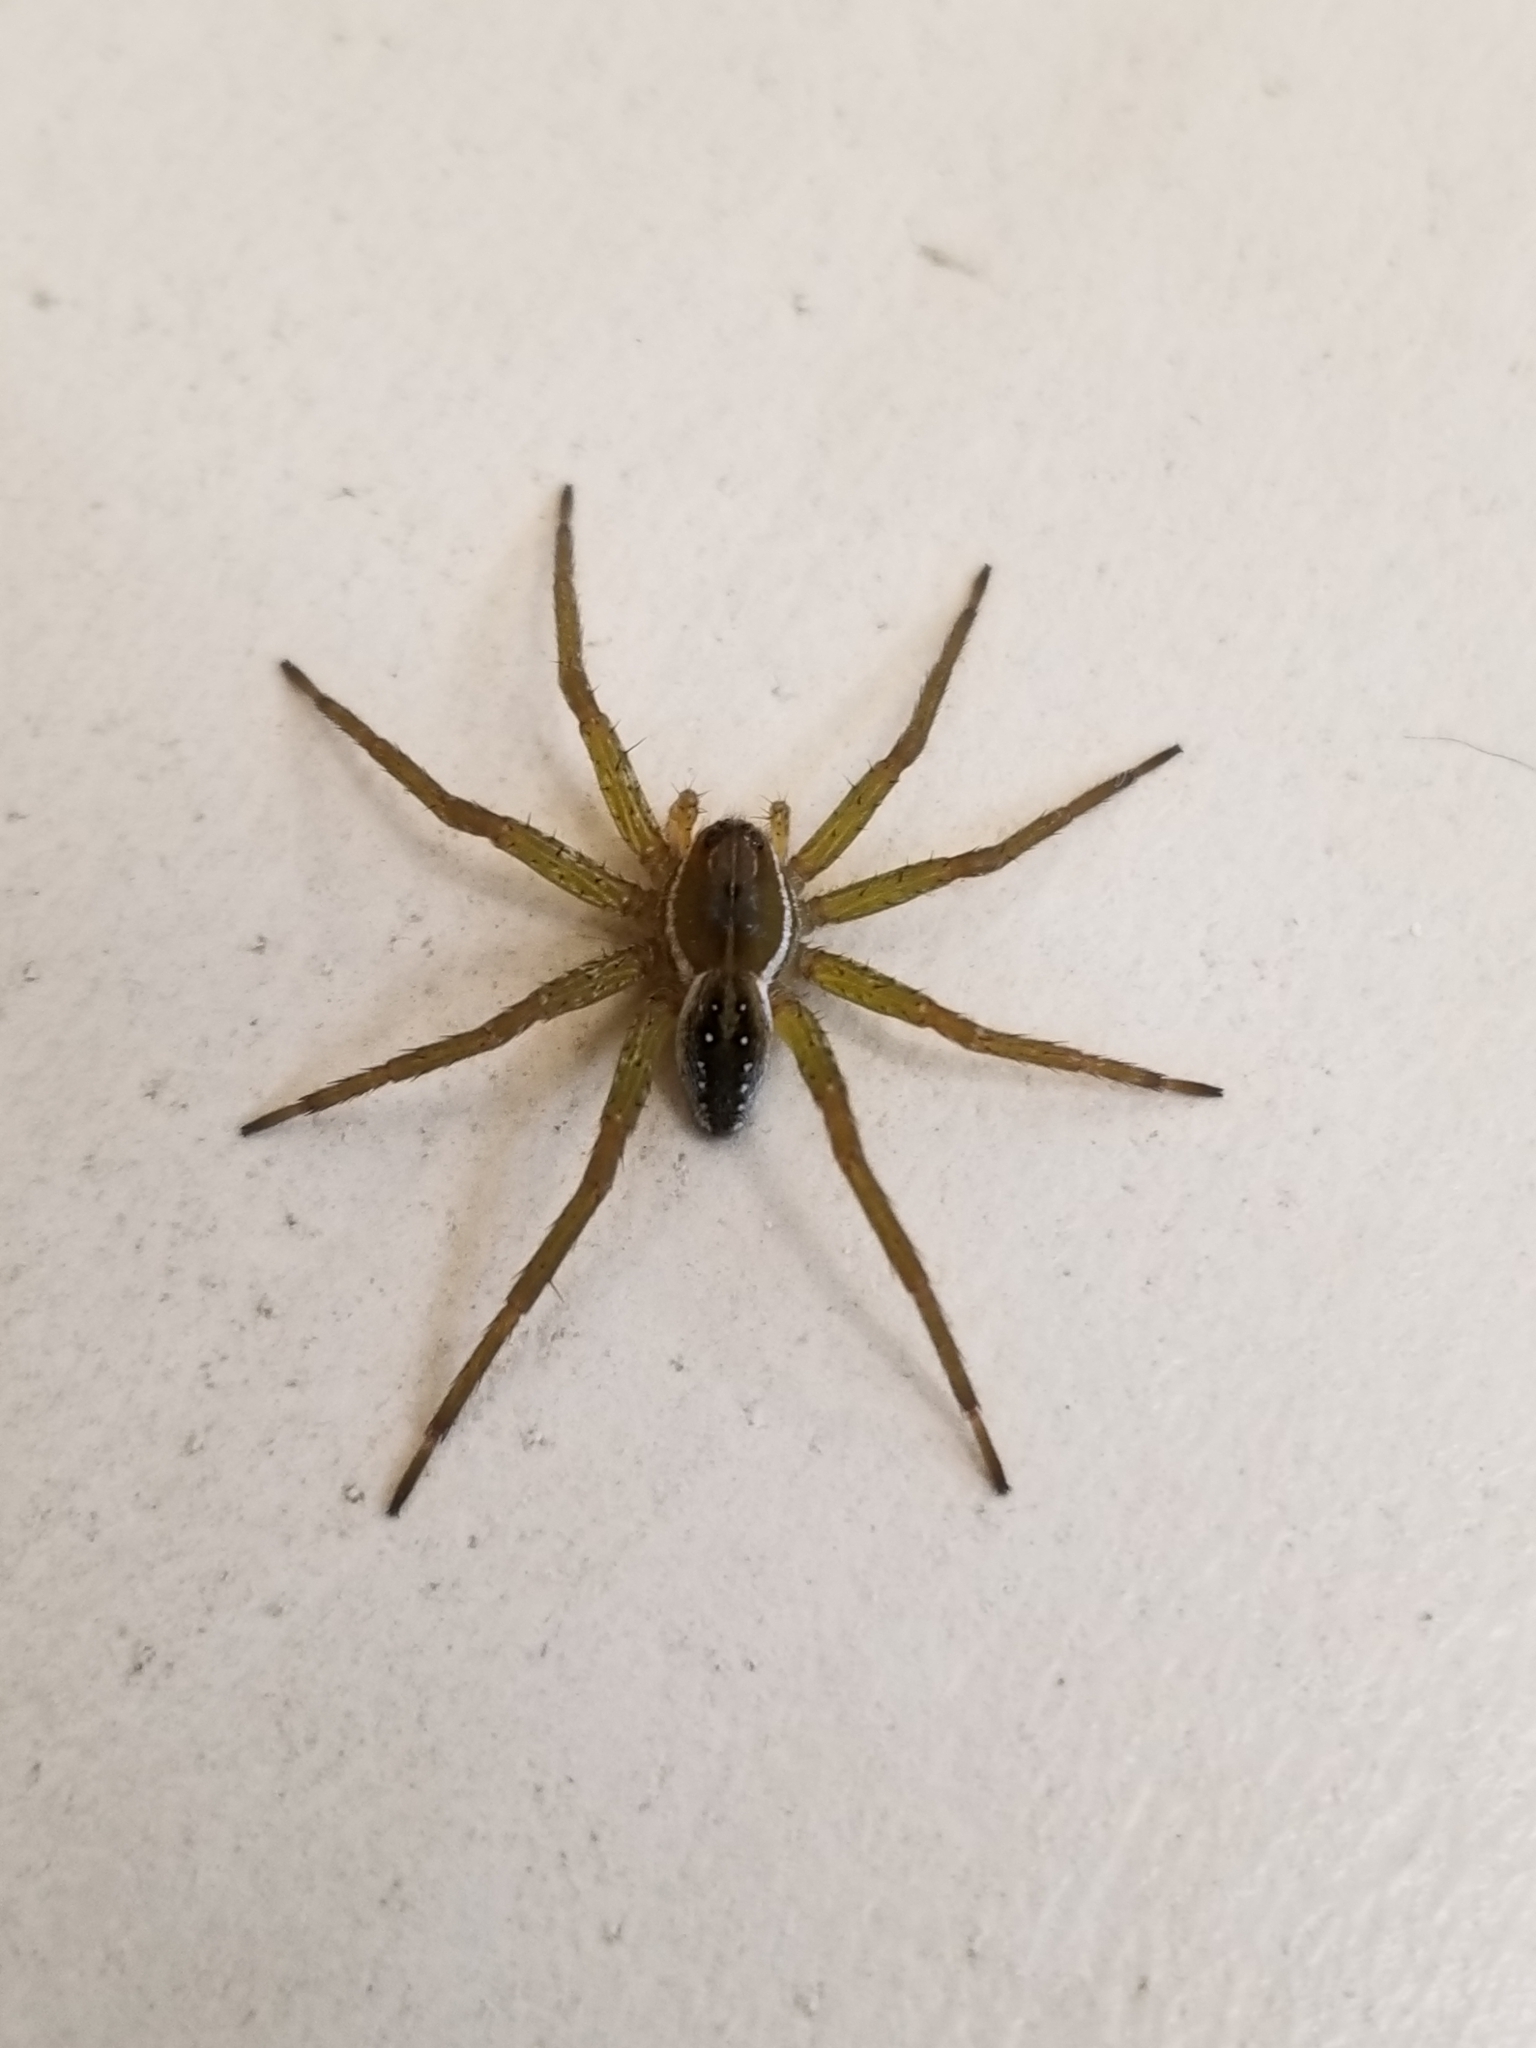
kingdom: Animalia
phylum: Arthropoda
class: Arachnida
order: Araneae
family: Pisauridae
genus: Dolomedes
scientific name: Dolomedes triton
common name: Six-spotted fishing spider
